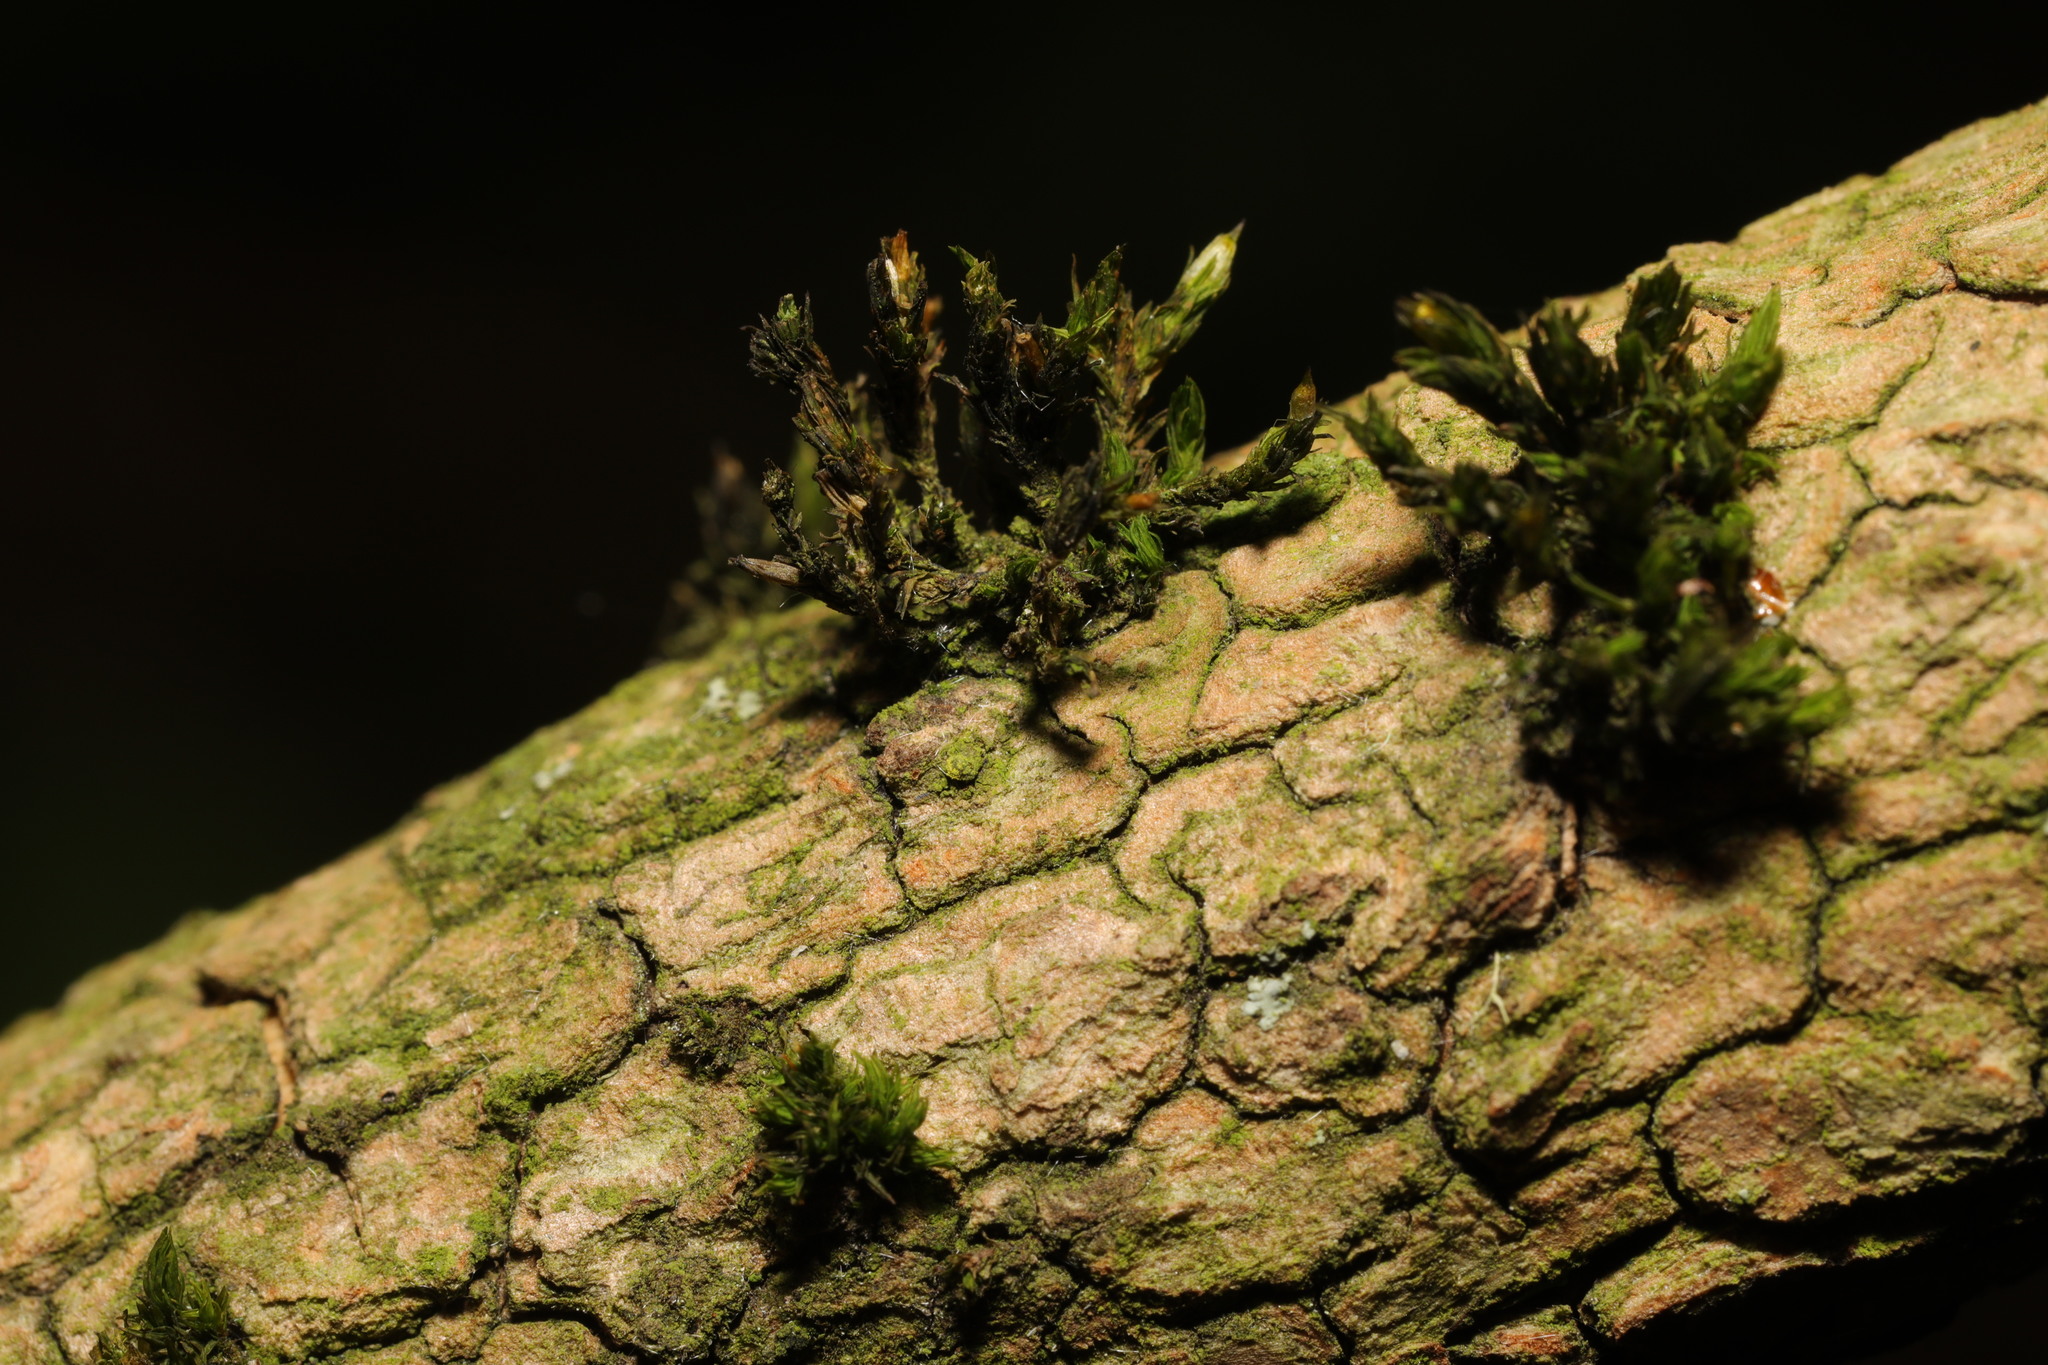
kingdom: Plantae
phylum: Bryophyta
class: Bryopsida
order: Orthotrichales
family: Orthotrichaceae
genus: Lewinskya
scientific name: Lewinskya affinis
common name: Wood bristle-moss
